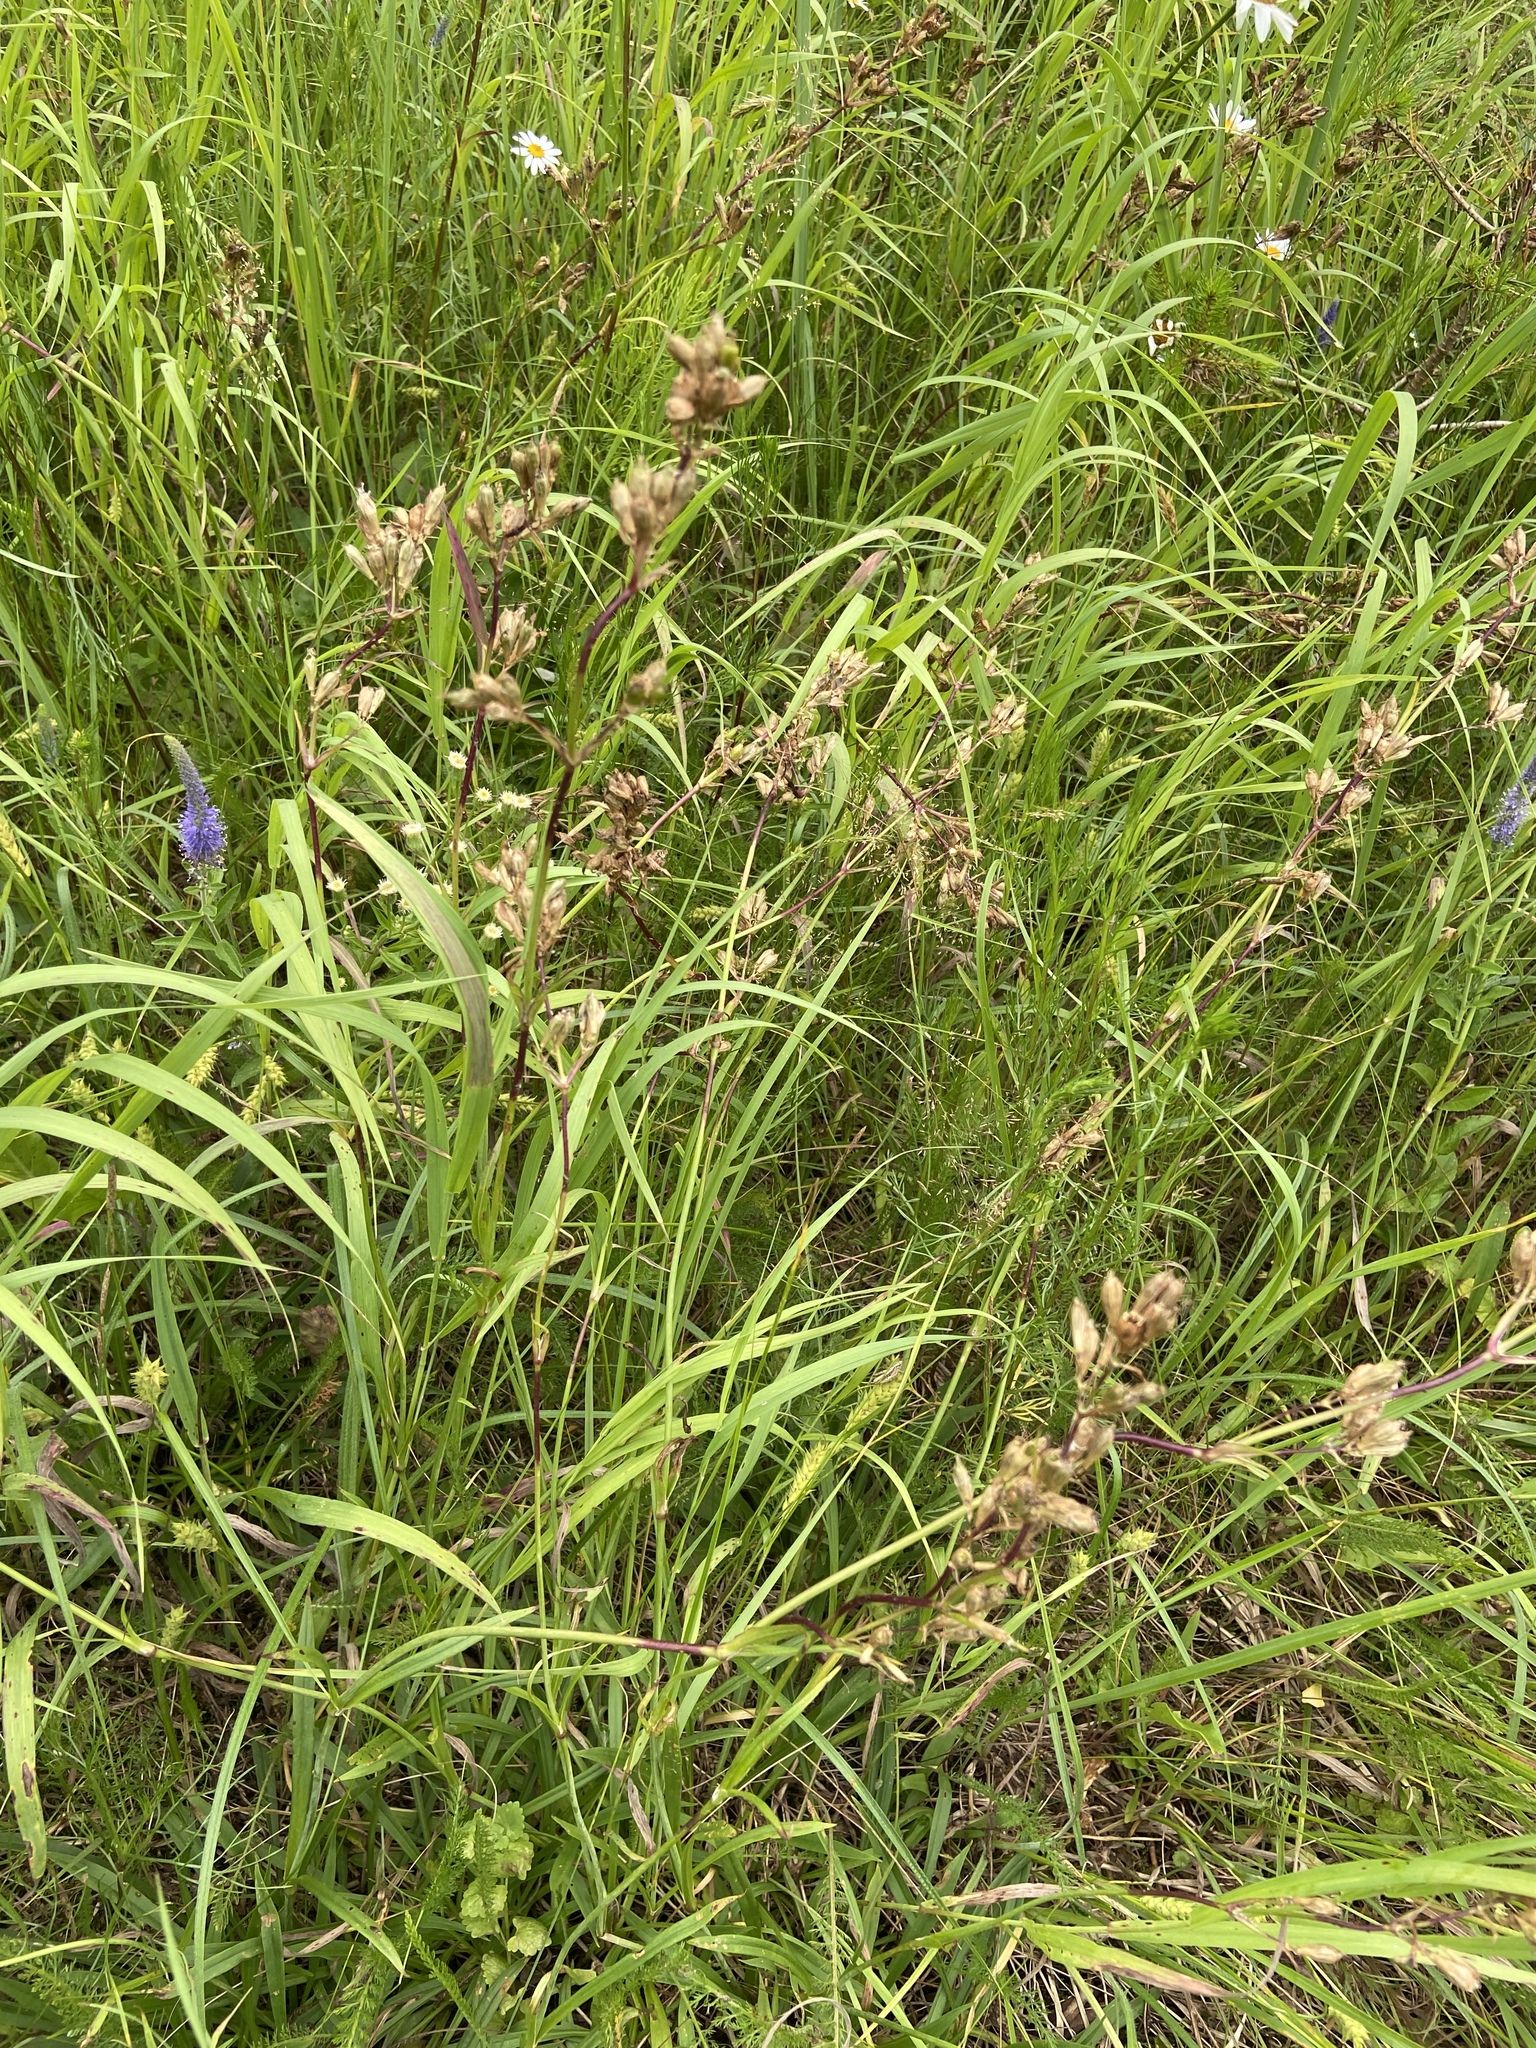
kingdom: Plantae
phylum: Tracheophyta
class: Magnoliopsida
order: Caryophyllales
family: Caryophyllaceae
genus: Viscaria
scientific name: Viscaria vulgaris
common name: Clammy campion
